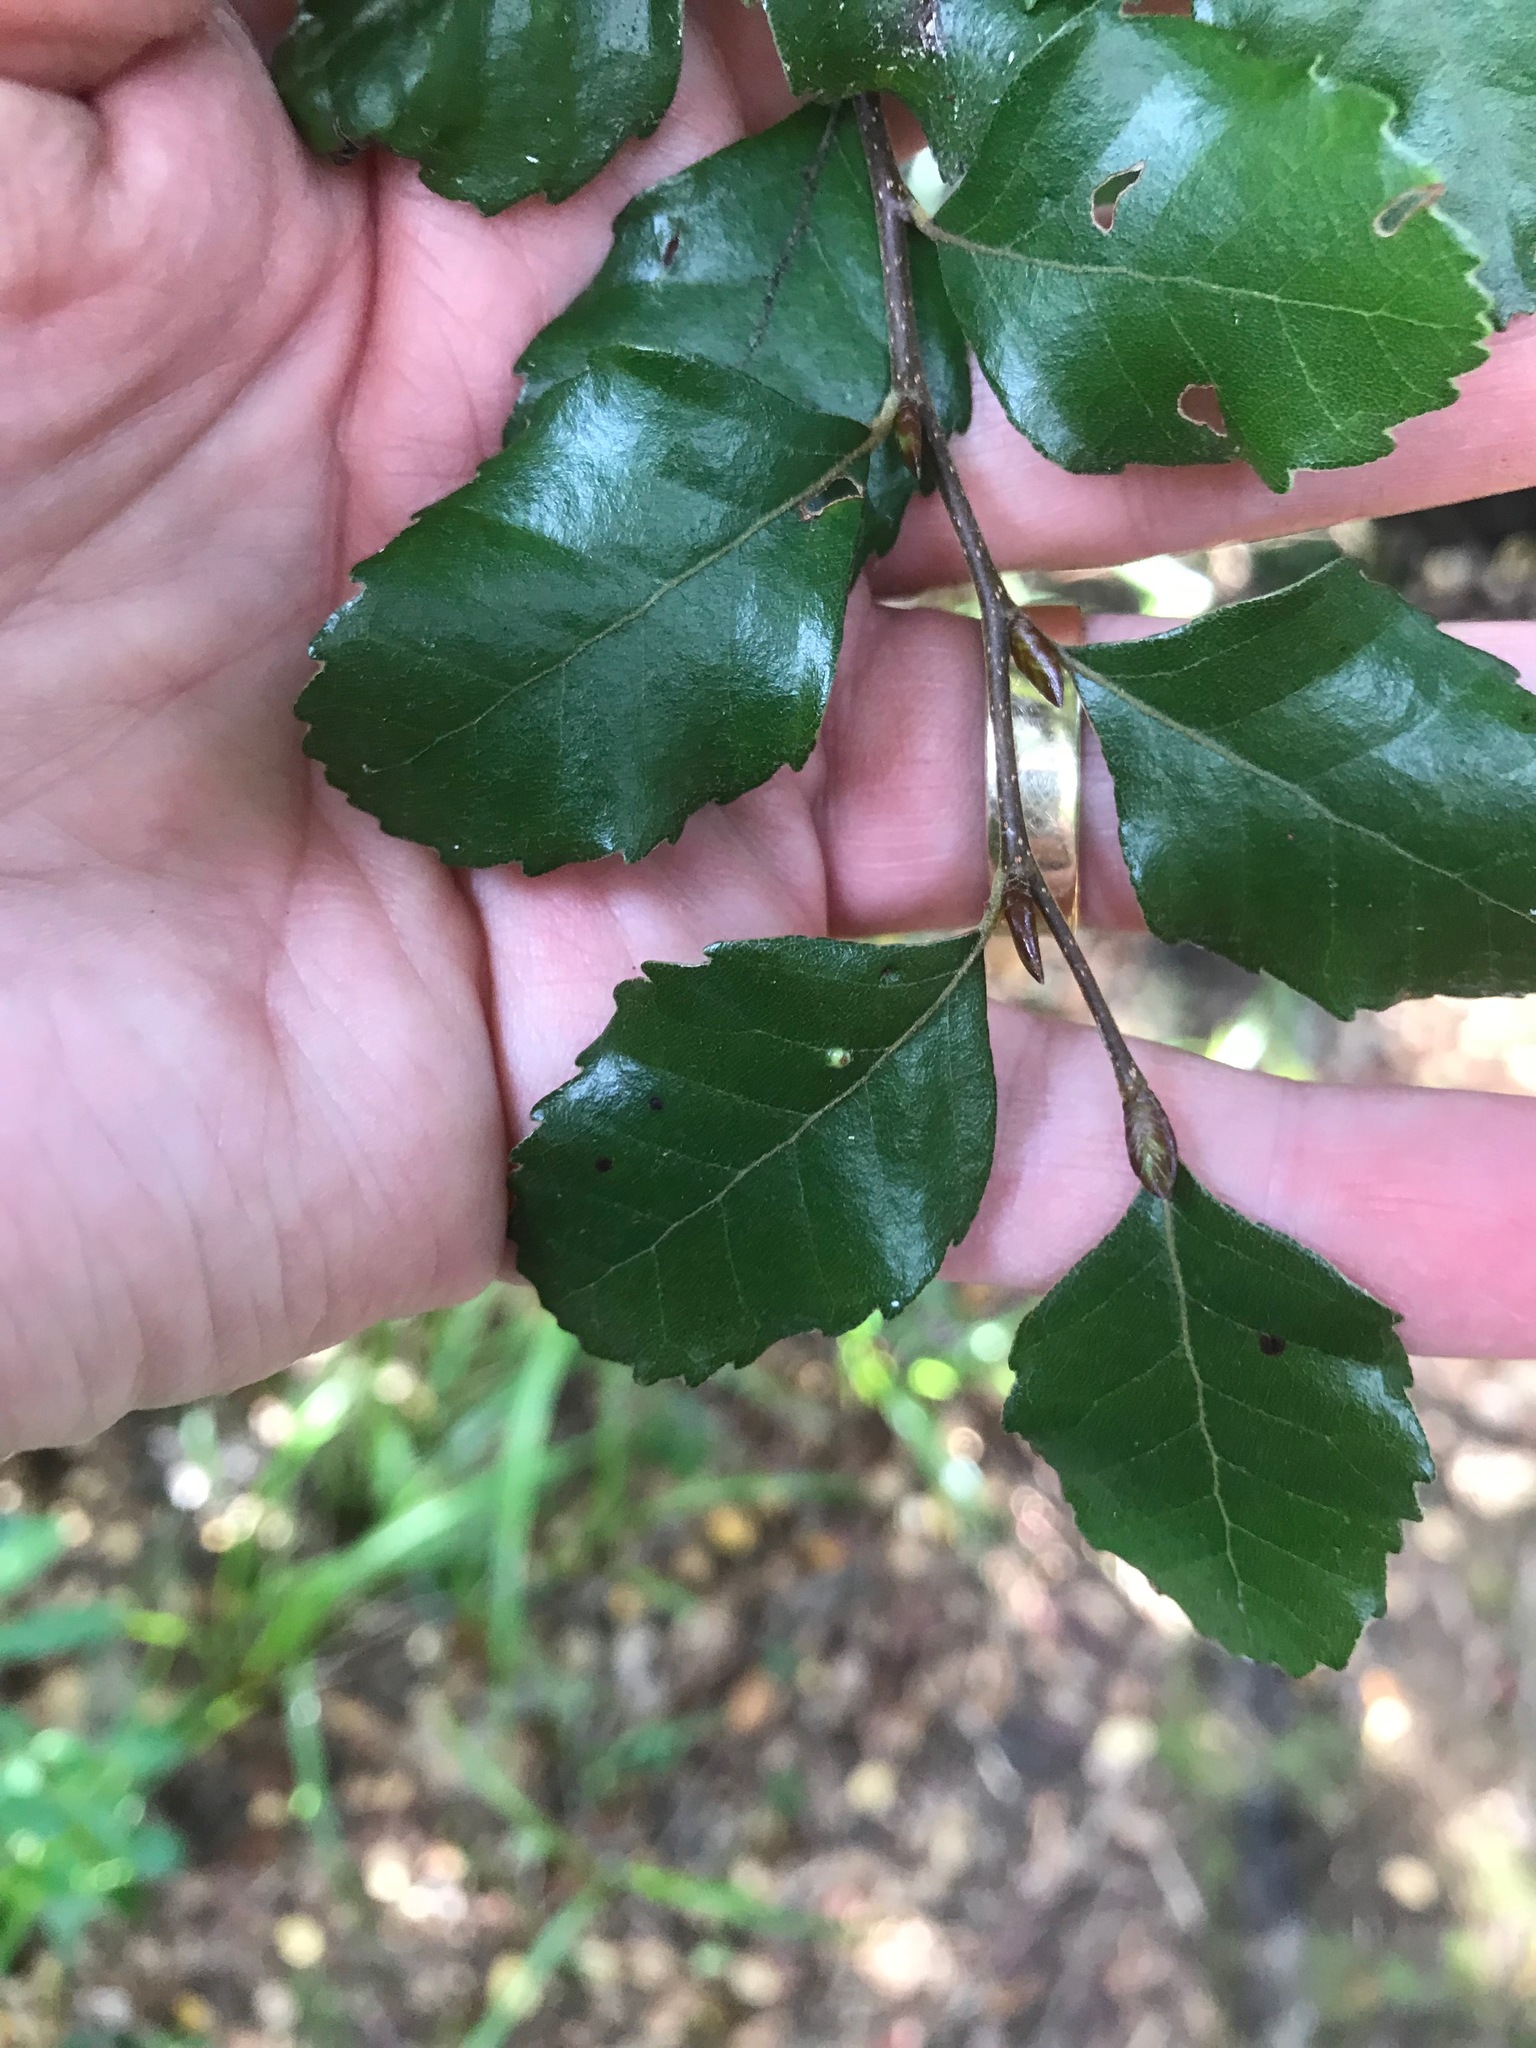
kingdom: Plantae
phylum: Tracheophyta
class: Magnoliopsida
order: Fagales
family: Nothofagaceae
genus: Nothofagus
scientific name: Nothofagus truncata
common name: Hard beech
